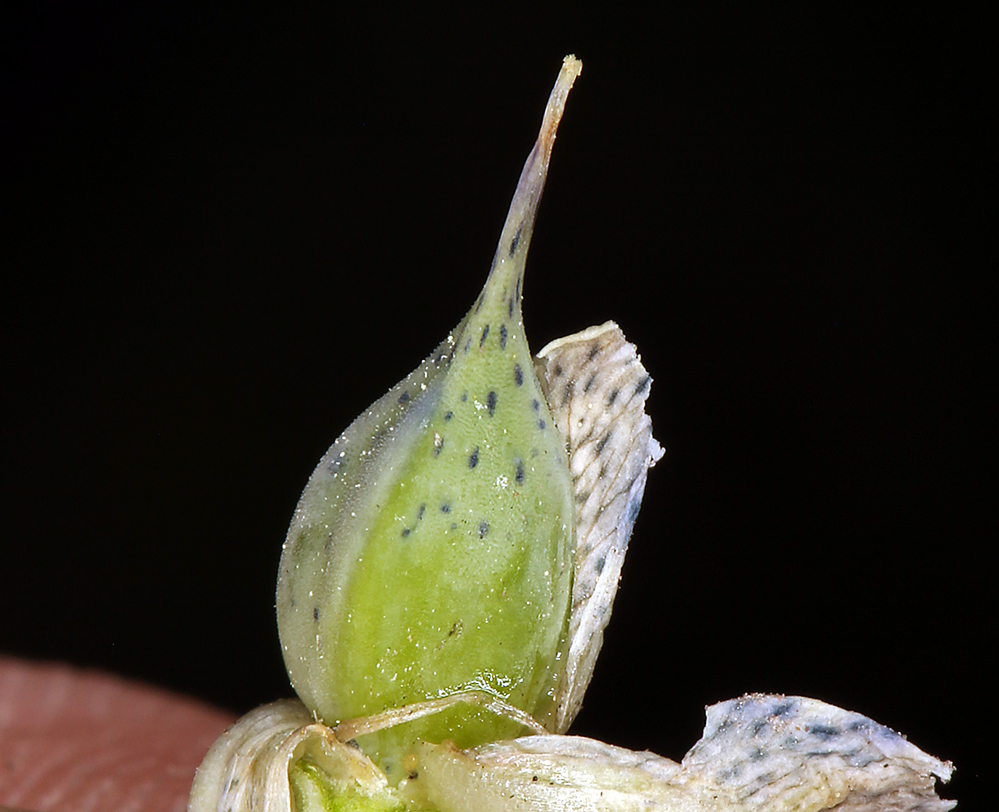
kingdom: Plantae
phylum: Tracheophyta
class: Magnoliopsida
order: Gentianales
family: Gentianaceae
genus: Frasera
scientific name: Frasera puberulenta
